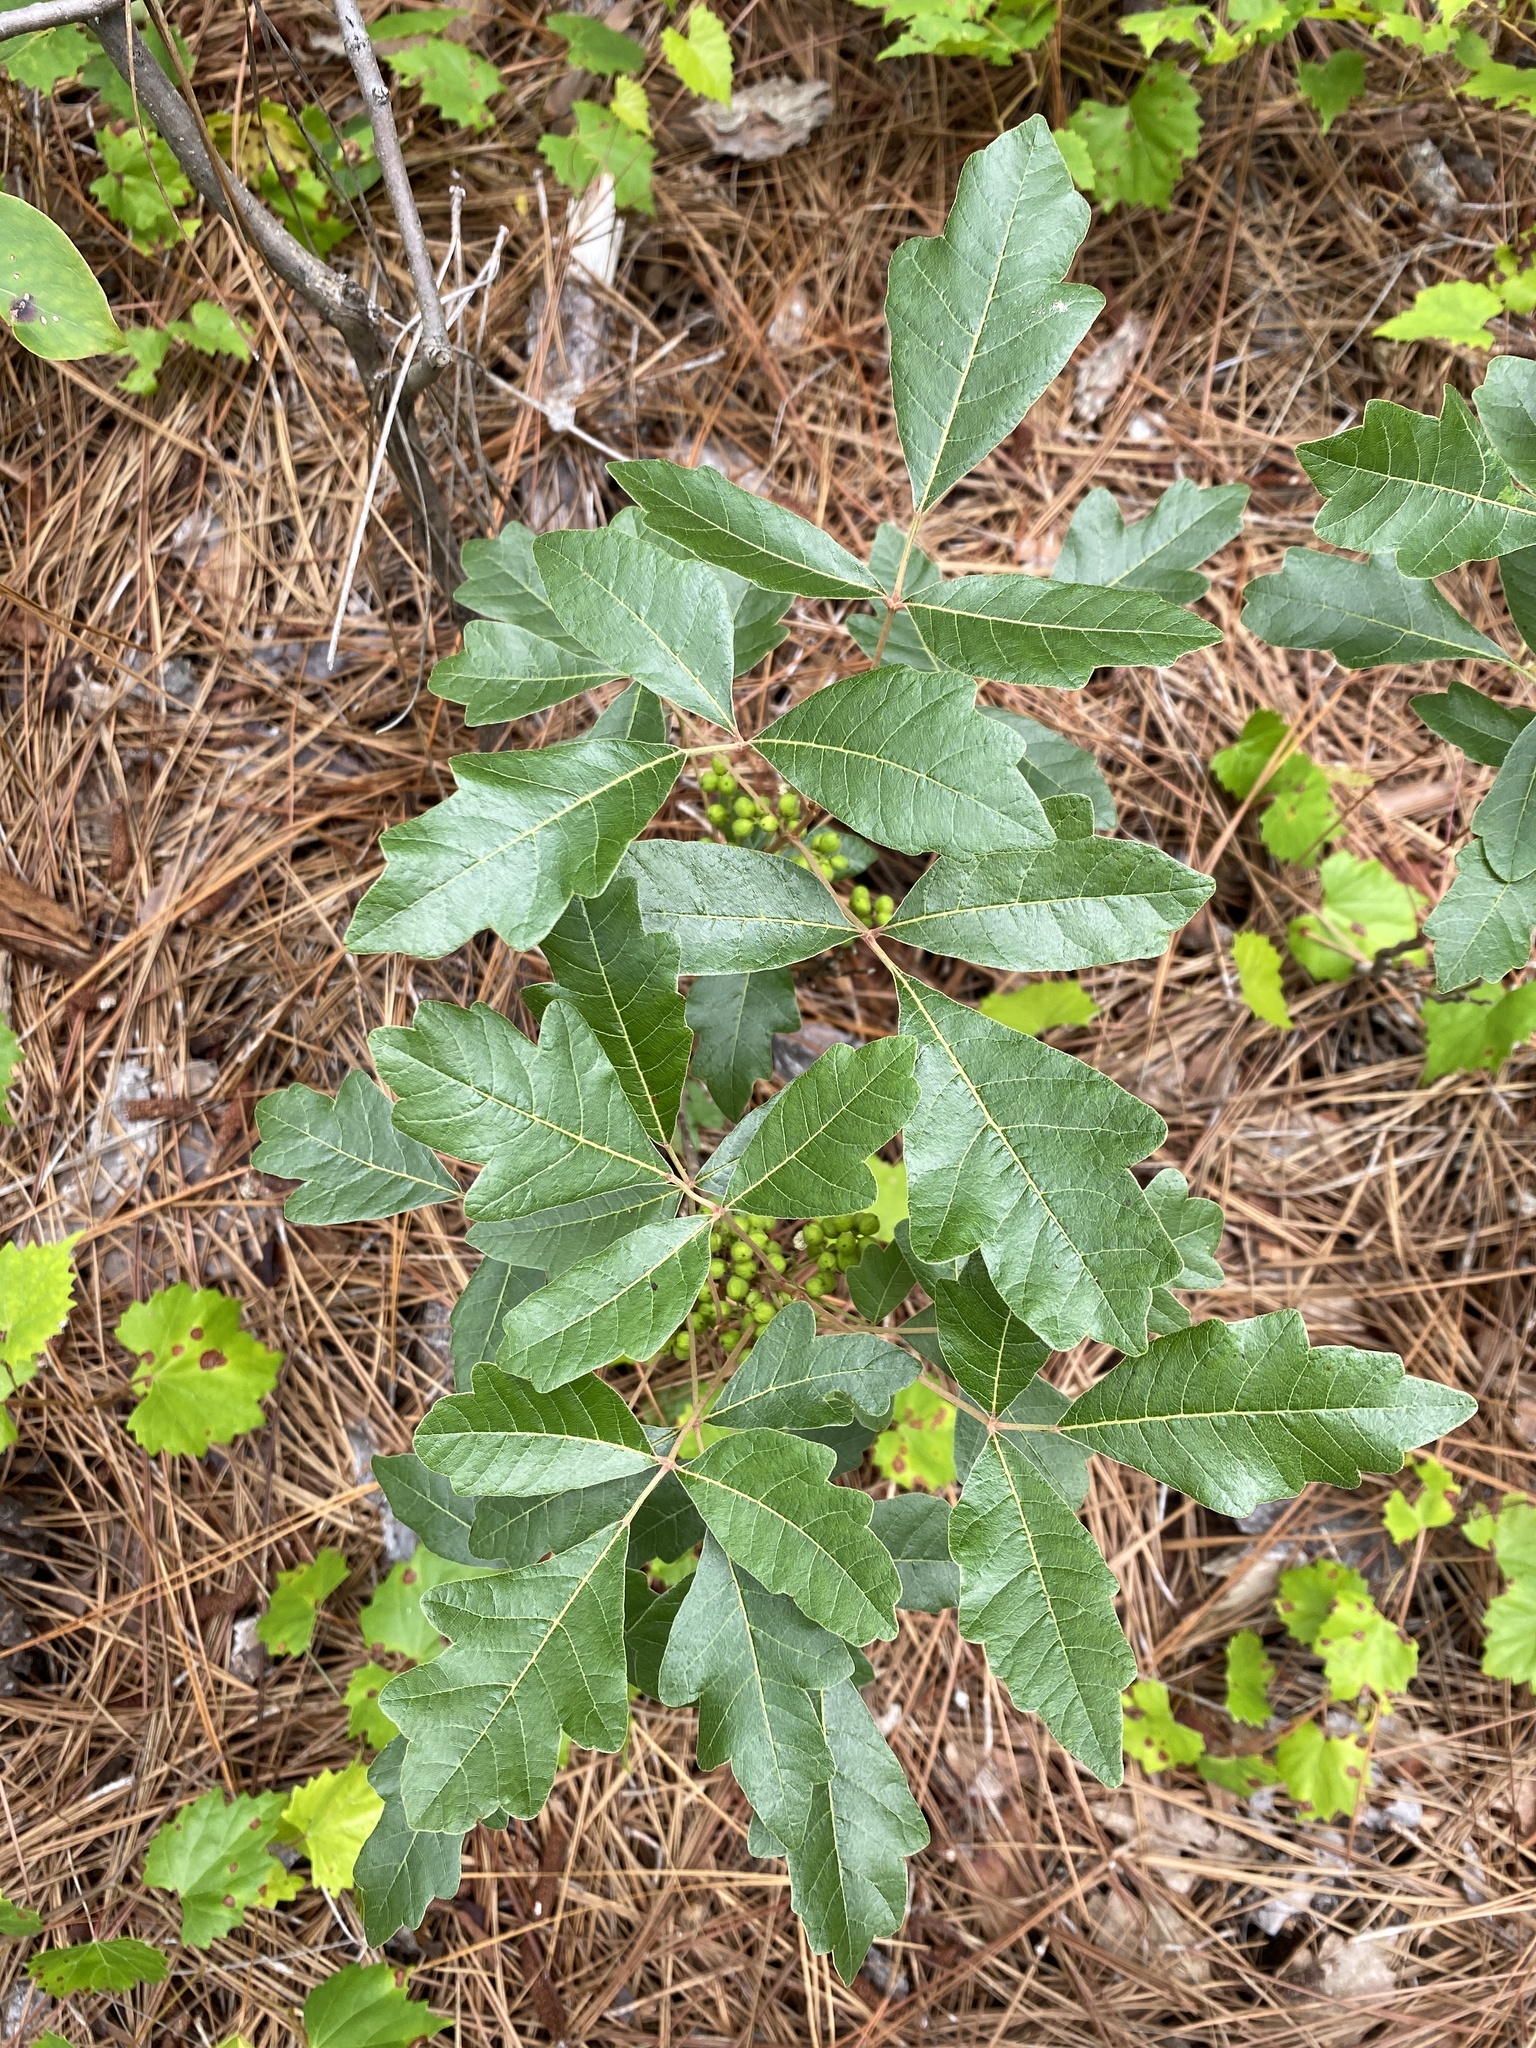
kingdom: Plantae
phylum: Tracheophyta
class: Magnoliopsida
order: Sapindales
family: Anacardiaceae
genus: Toxicodendron
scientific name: Toxicodendron pubescens
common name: Eastern poison-oak
